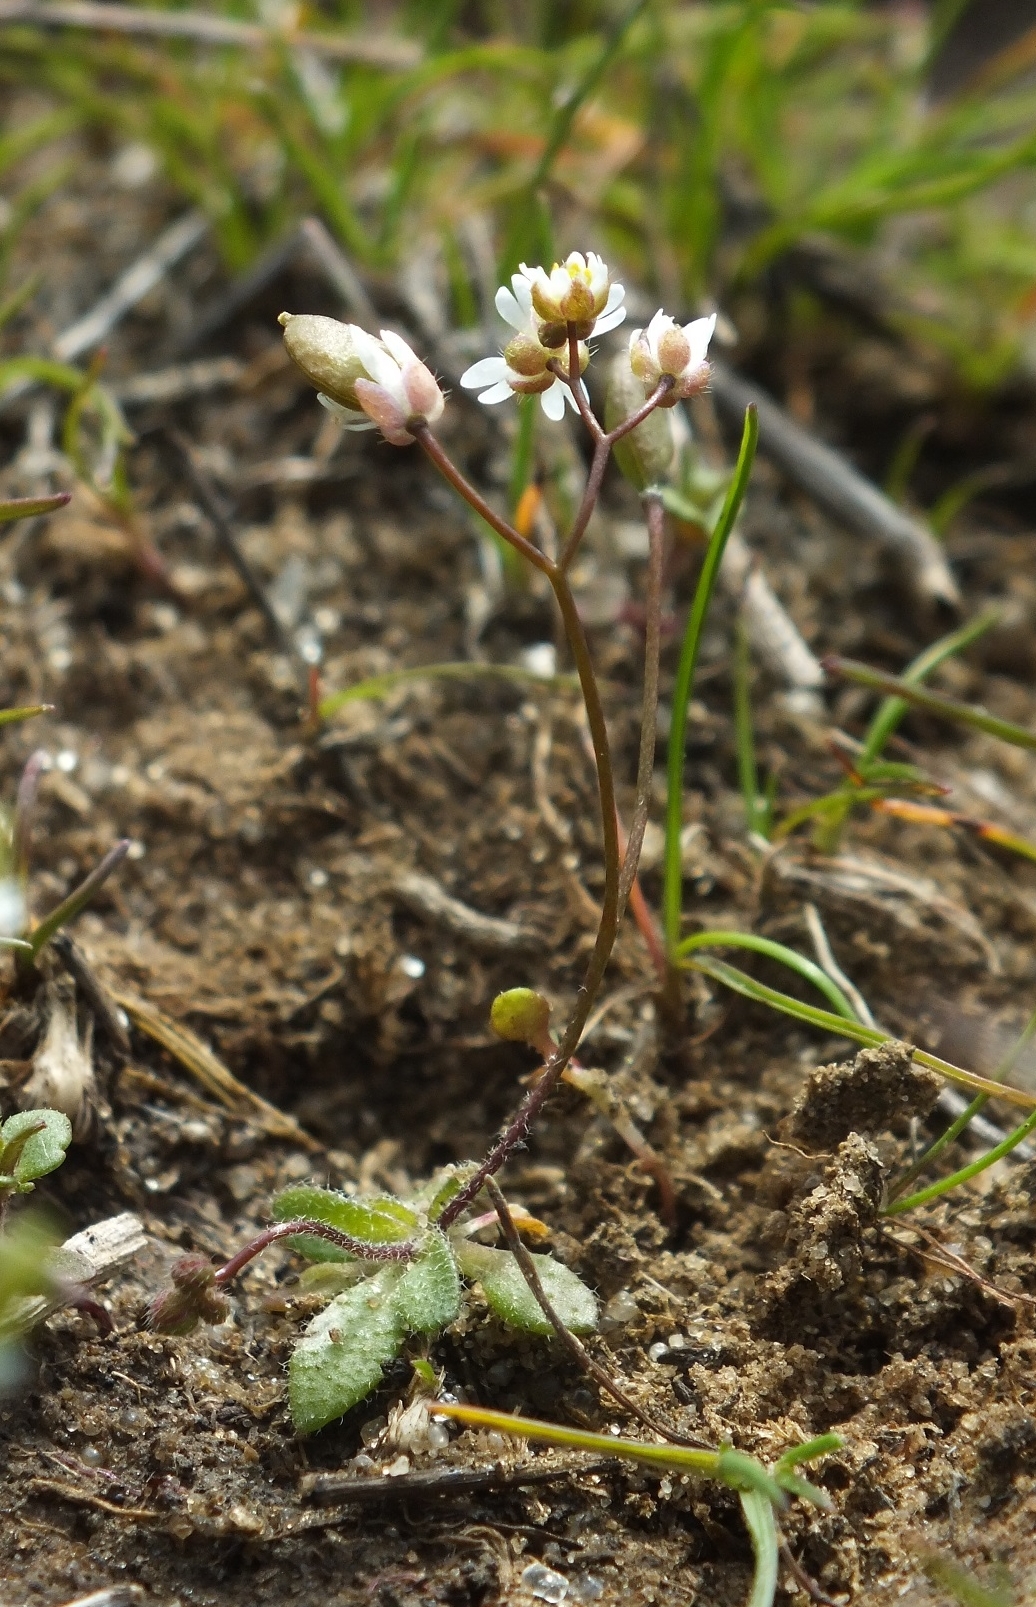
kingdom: Plantae
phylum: Tracheophyta
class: Magnoliopsida
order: Brassicales
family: Brassicaceae
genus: Draba
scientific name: Draba verna
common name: Spring draba
